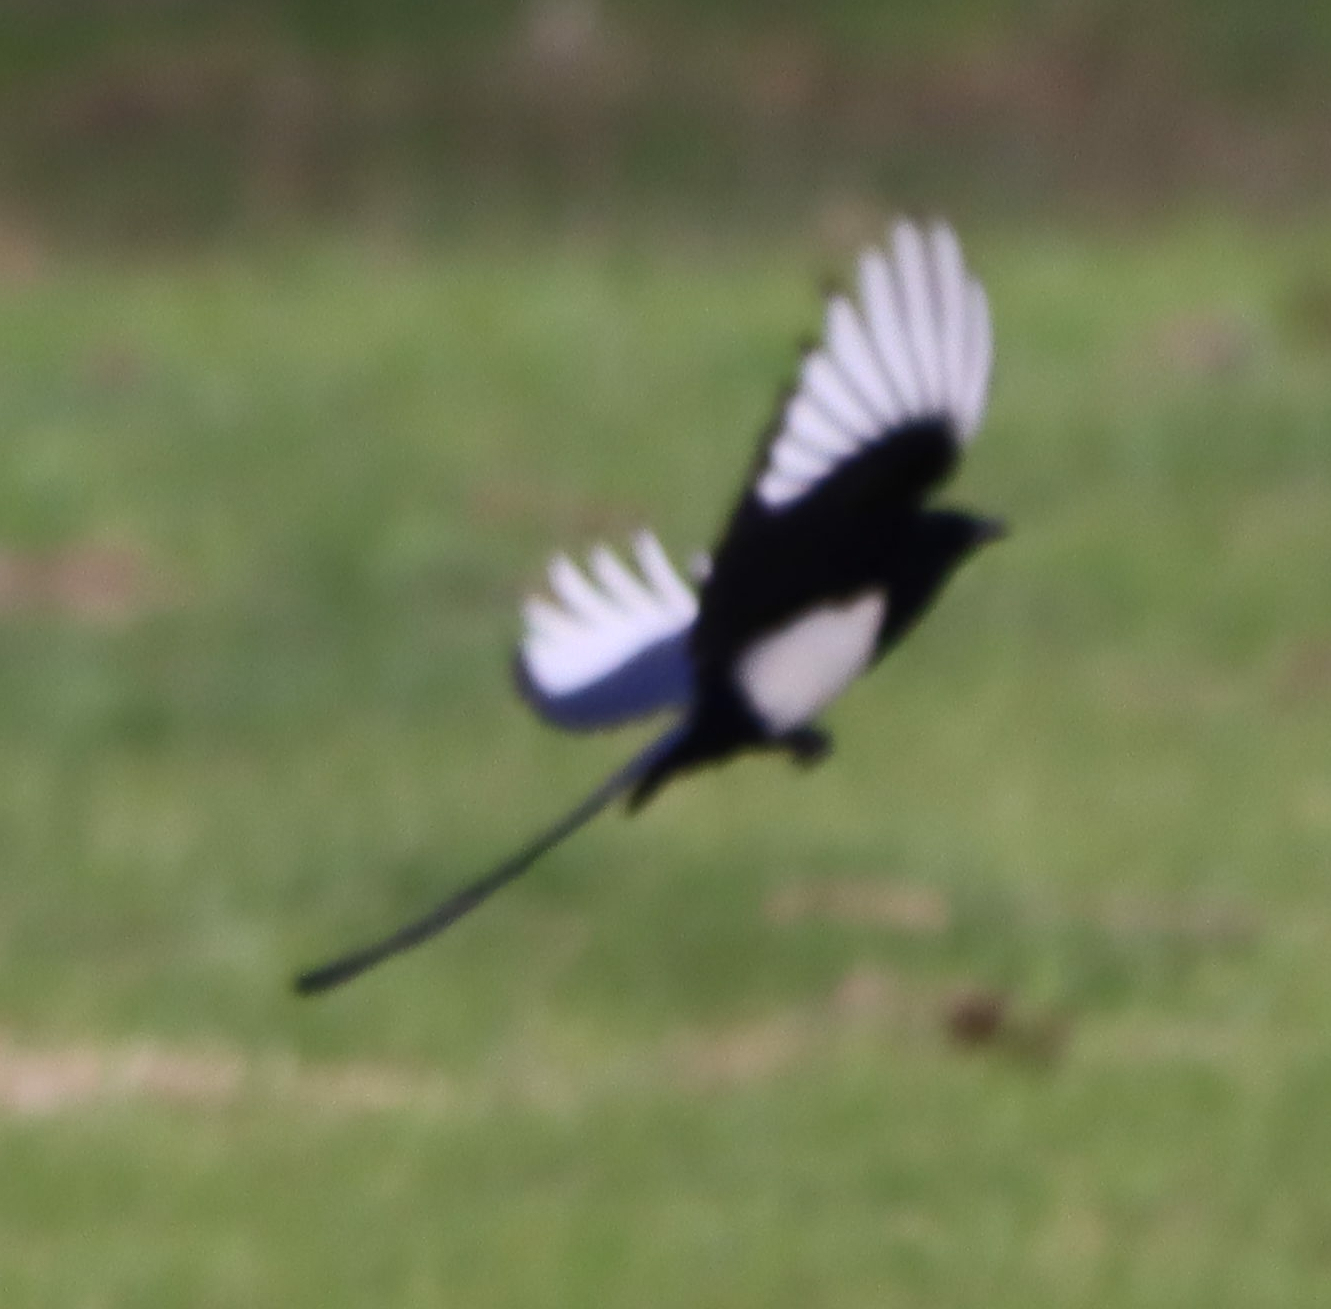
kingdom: Animalia
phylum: Chordata
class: Aves
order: Passeriformes
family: Corvidae
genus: Pica
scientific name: Pica hudsonia
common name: Black-billed magpie
